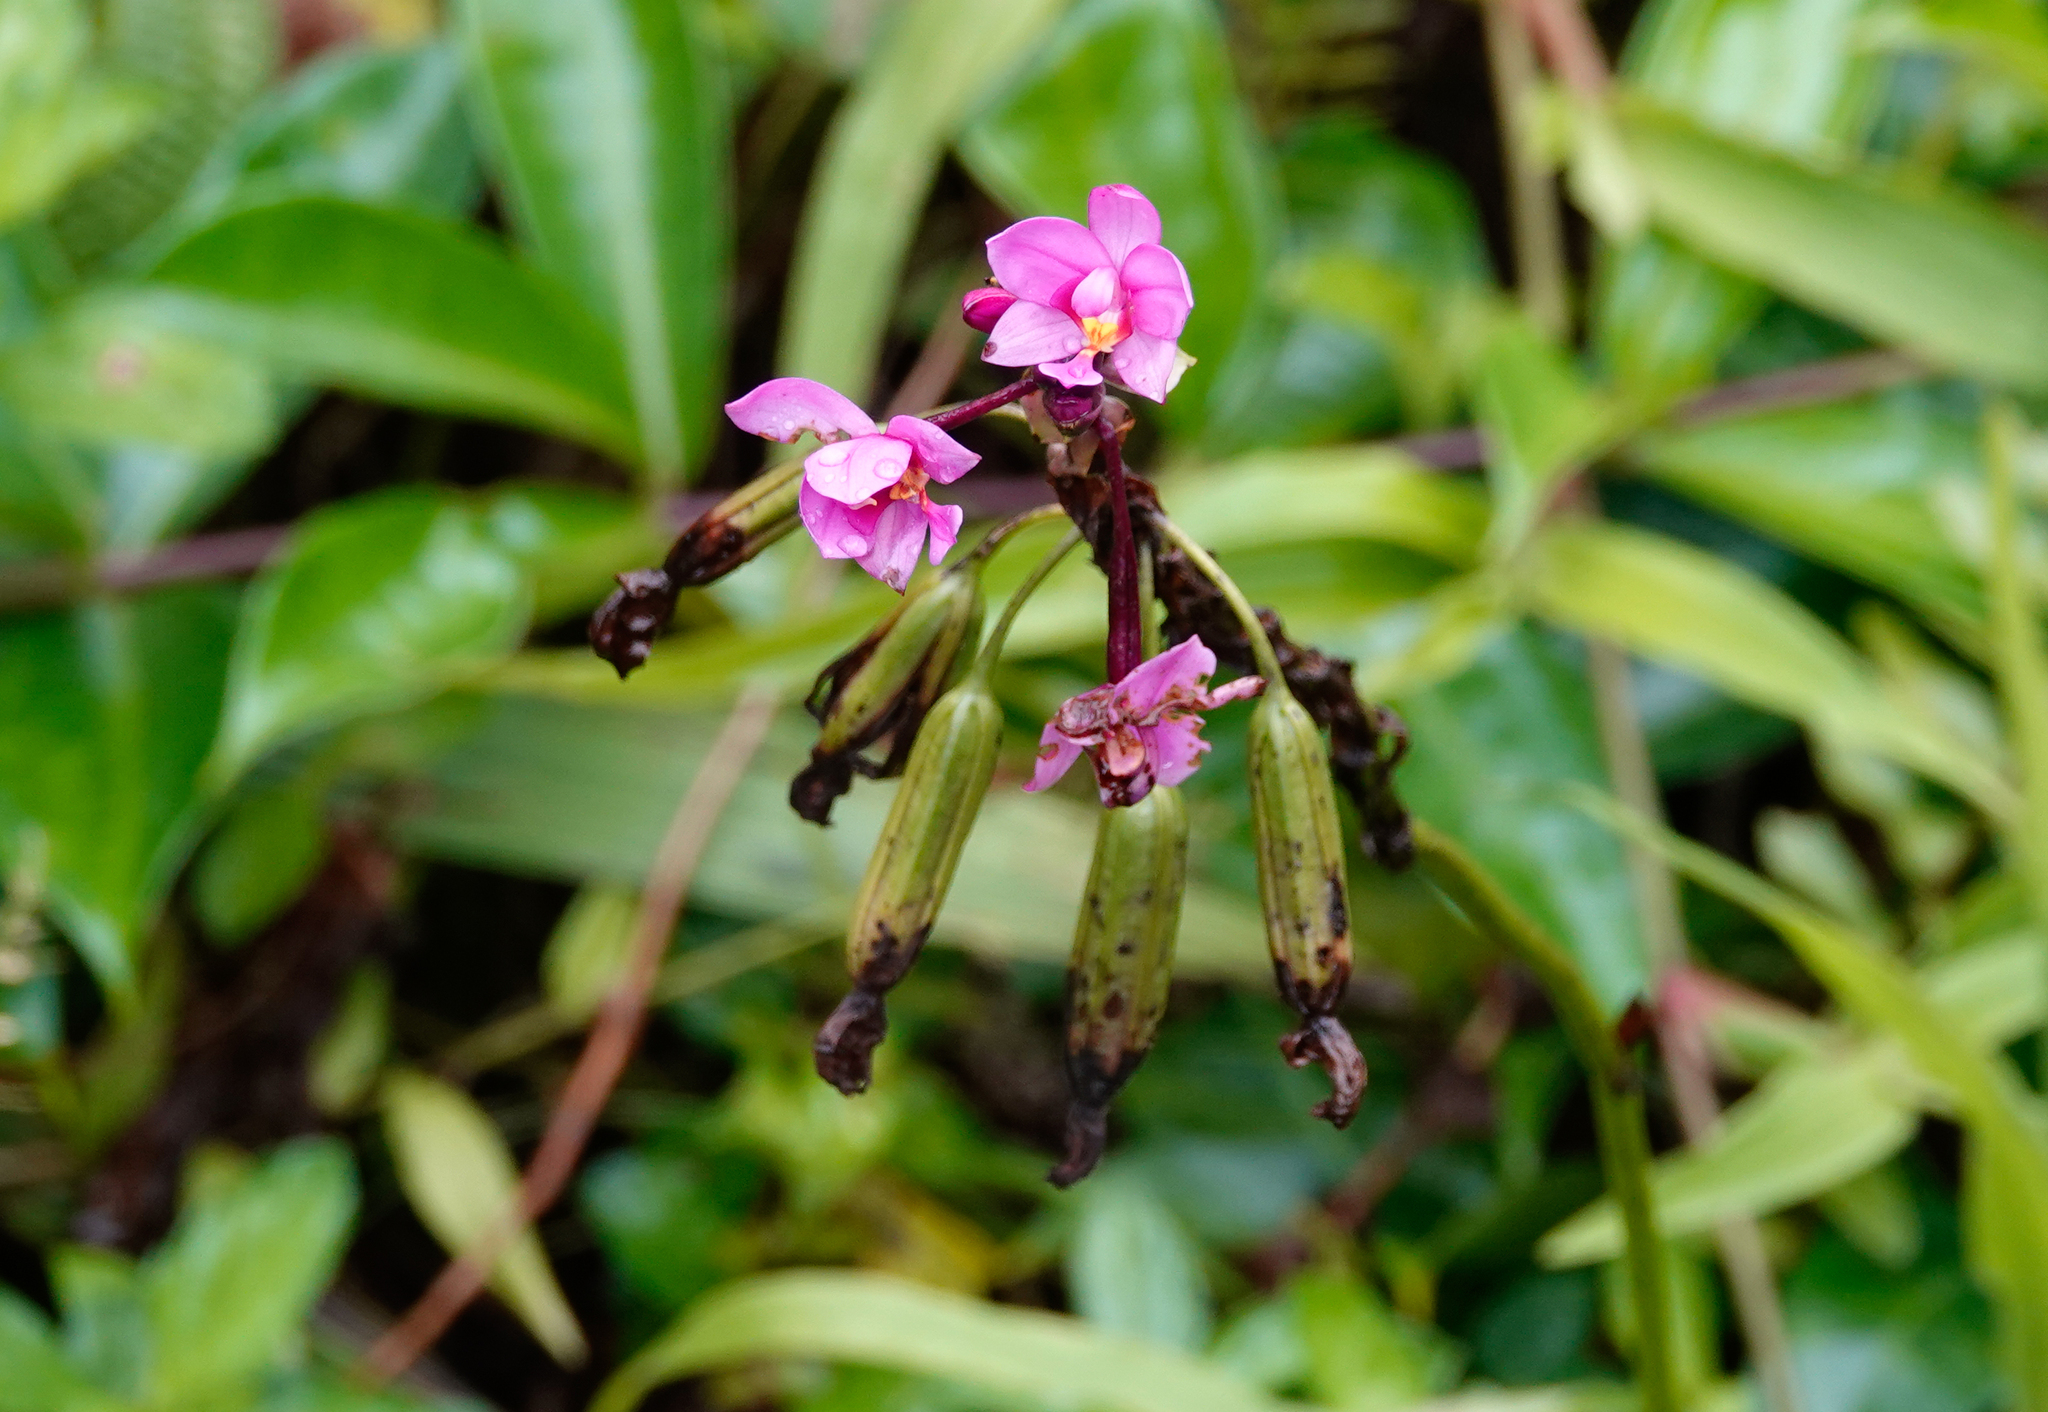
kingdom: Plantae
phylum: Tracheophyta
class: Liliopsida
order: Asparagales
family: Orchidaceae
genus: Spathoglottis
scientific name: Spathoglottis plicata
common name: Philippine ground orchid
